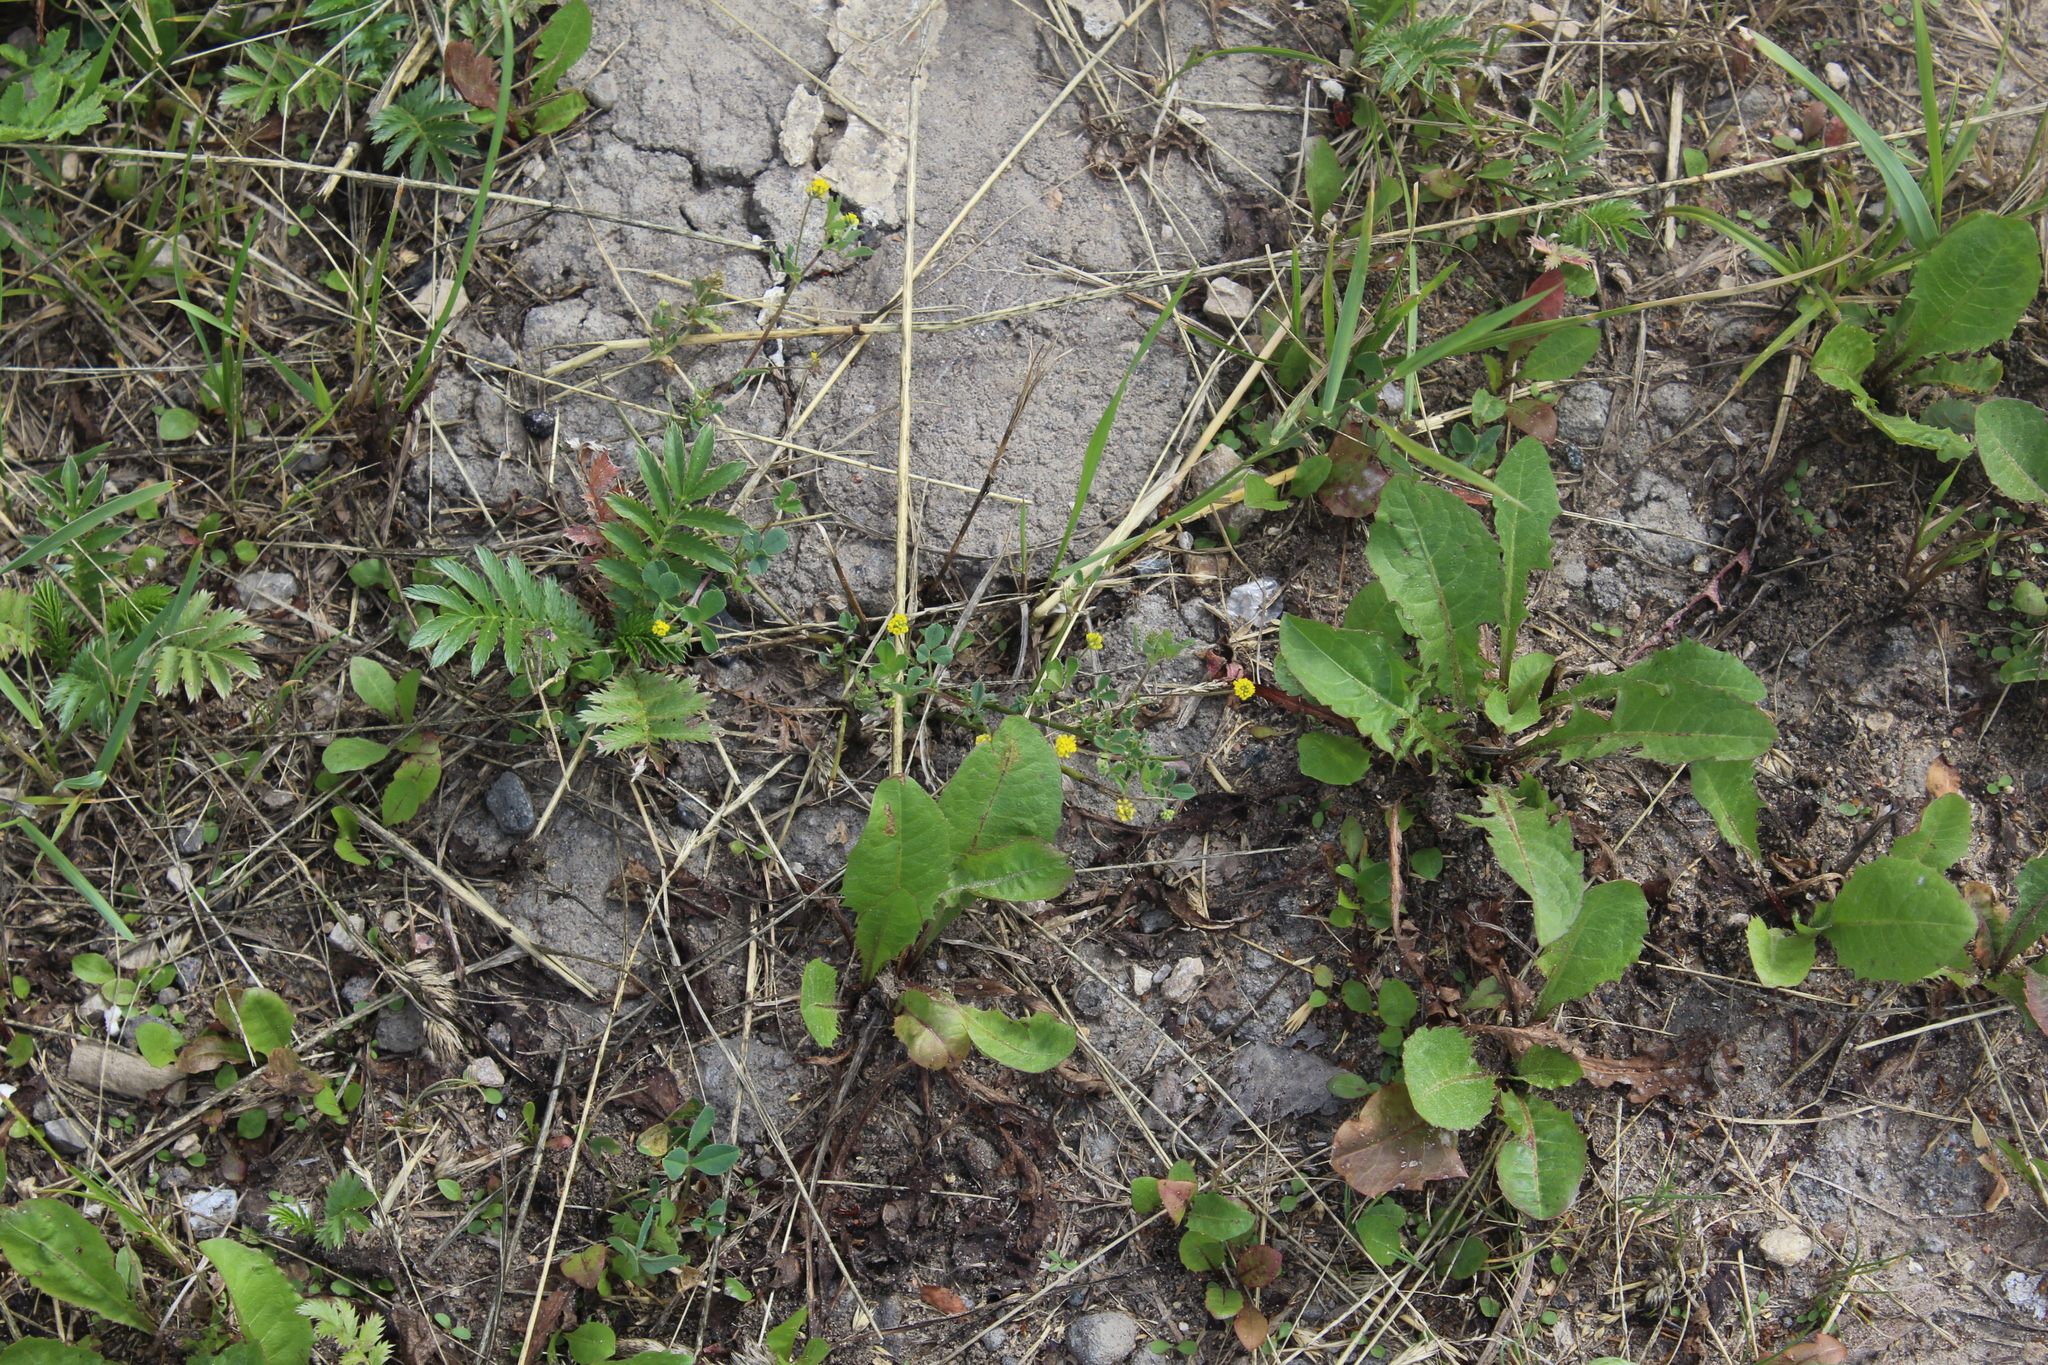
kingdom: Plantae
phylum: Tracheophyta
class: Magnoliopsida
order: Fabales
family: Fabaceae
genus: Medicago
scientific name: Medicago lupulina
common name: Black medick
